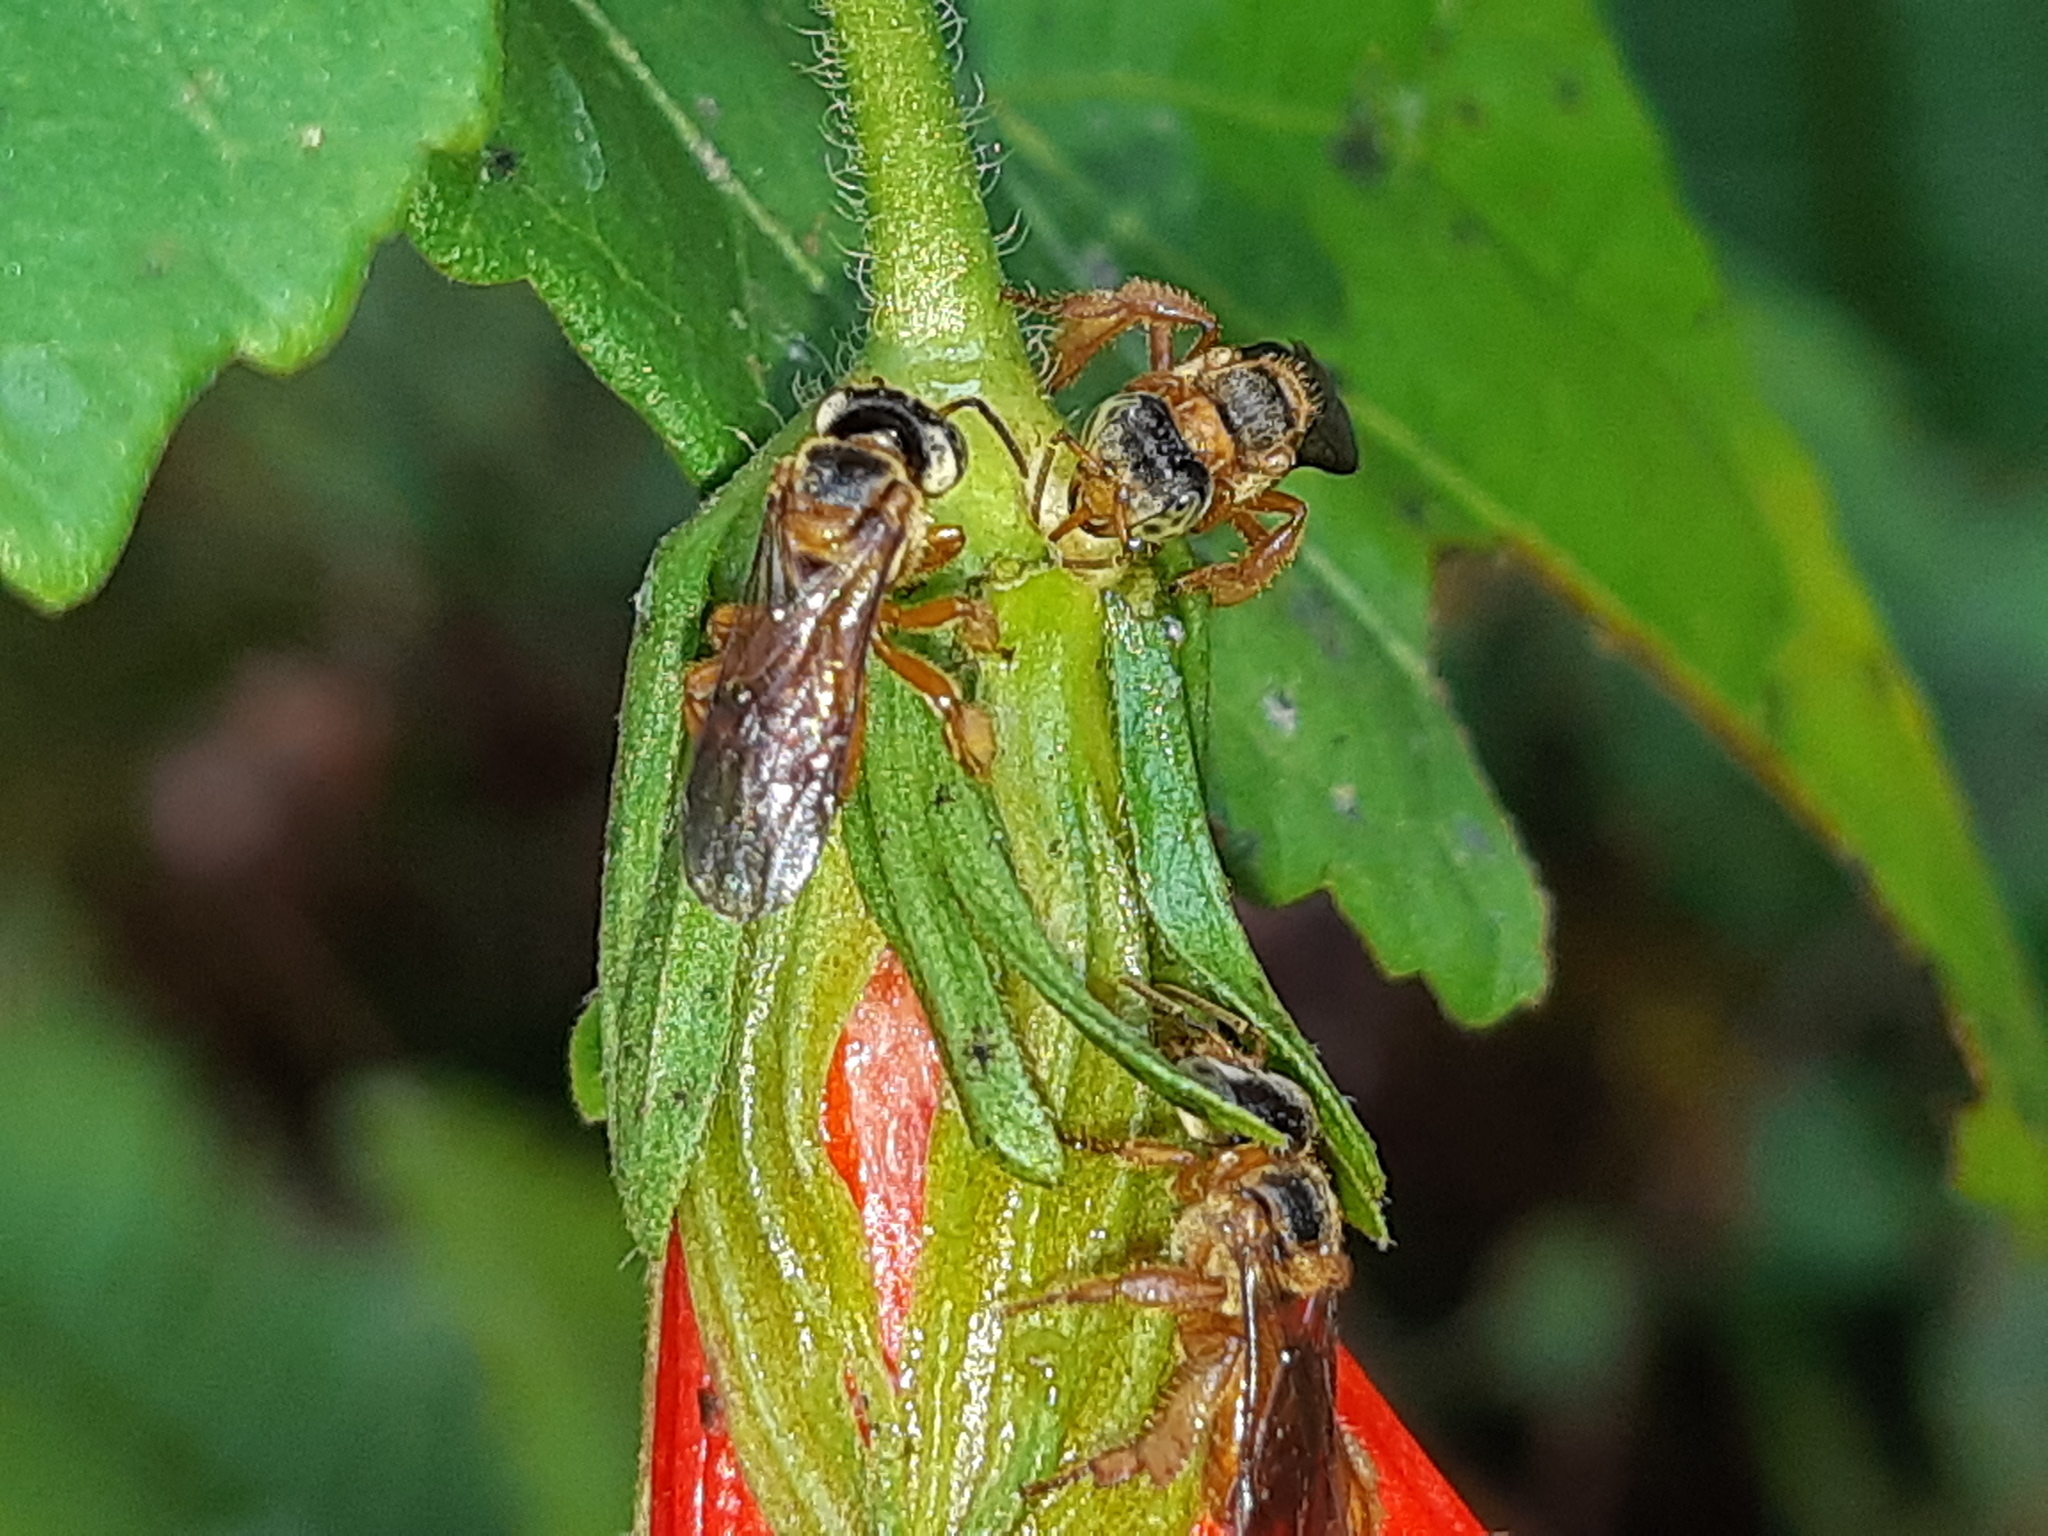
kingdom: Animalia
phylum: Arthropoda
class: Insecta
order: Hymenoptera
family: Apidae
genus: Trigona
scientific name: Trigona ferricauda
